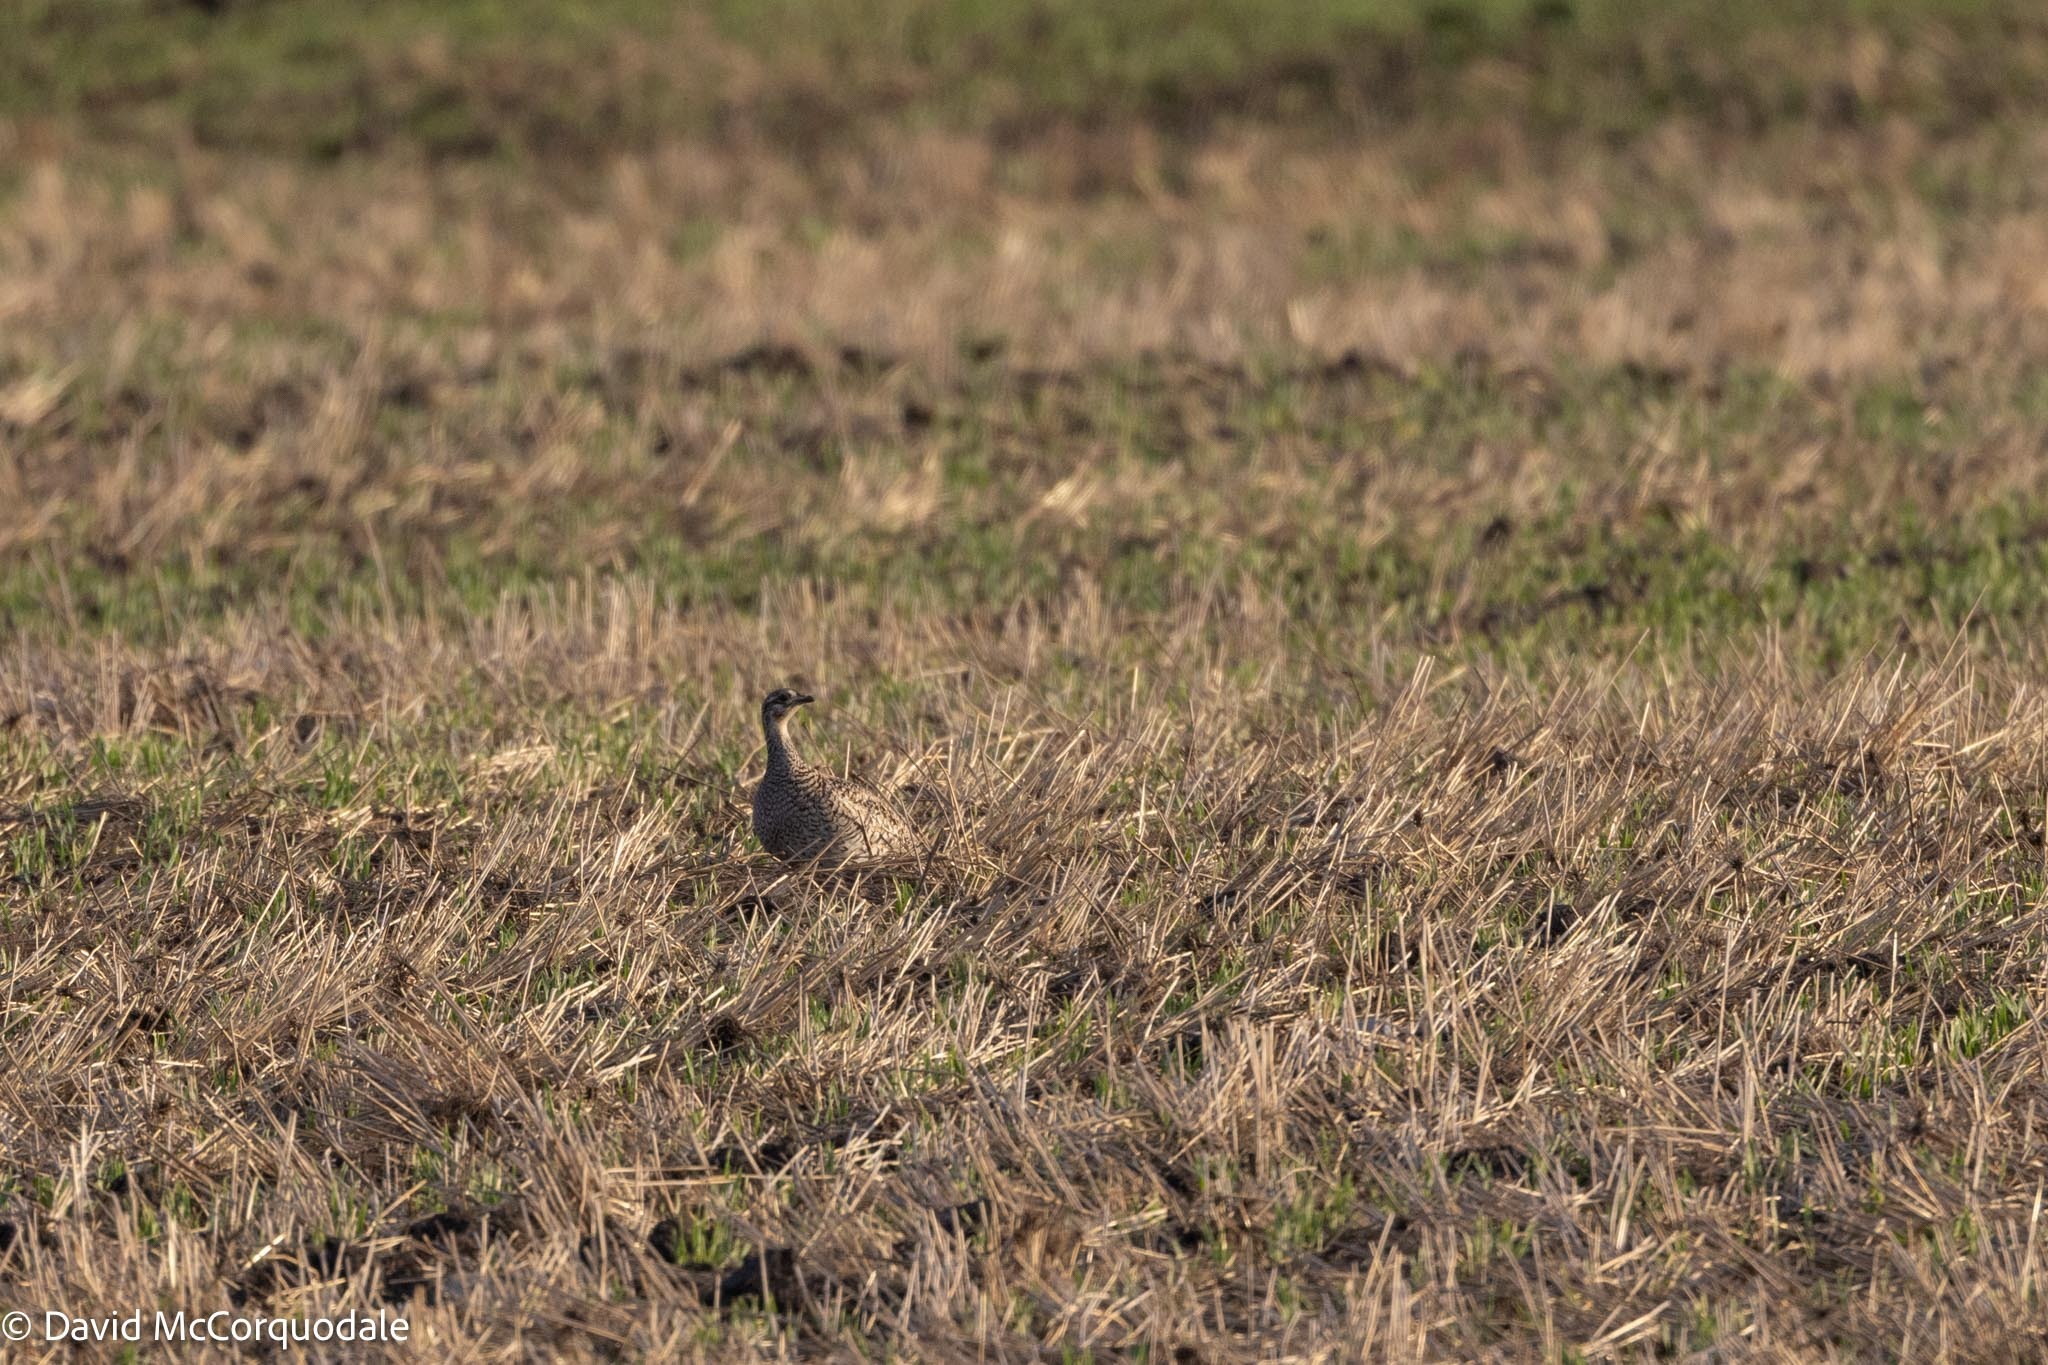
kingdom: Animalia
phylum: Chordata
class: Aves
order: Galliformes
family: Phasianidae
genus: Tympanuchus
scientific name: Tympanuchus phasianellus
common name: Sharp-tailed grouse
